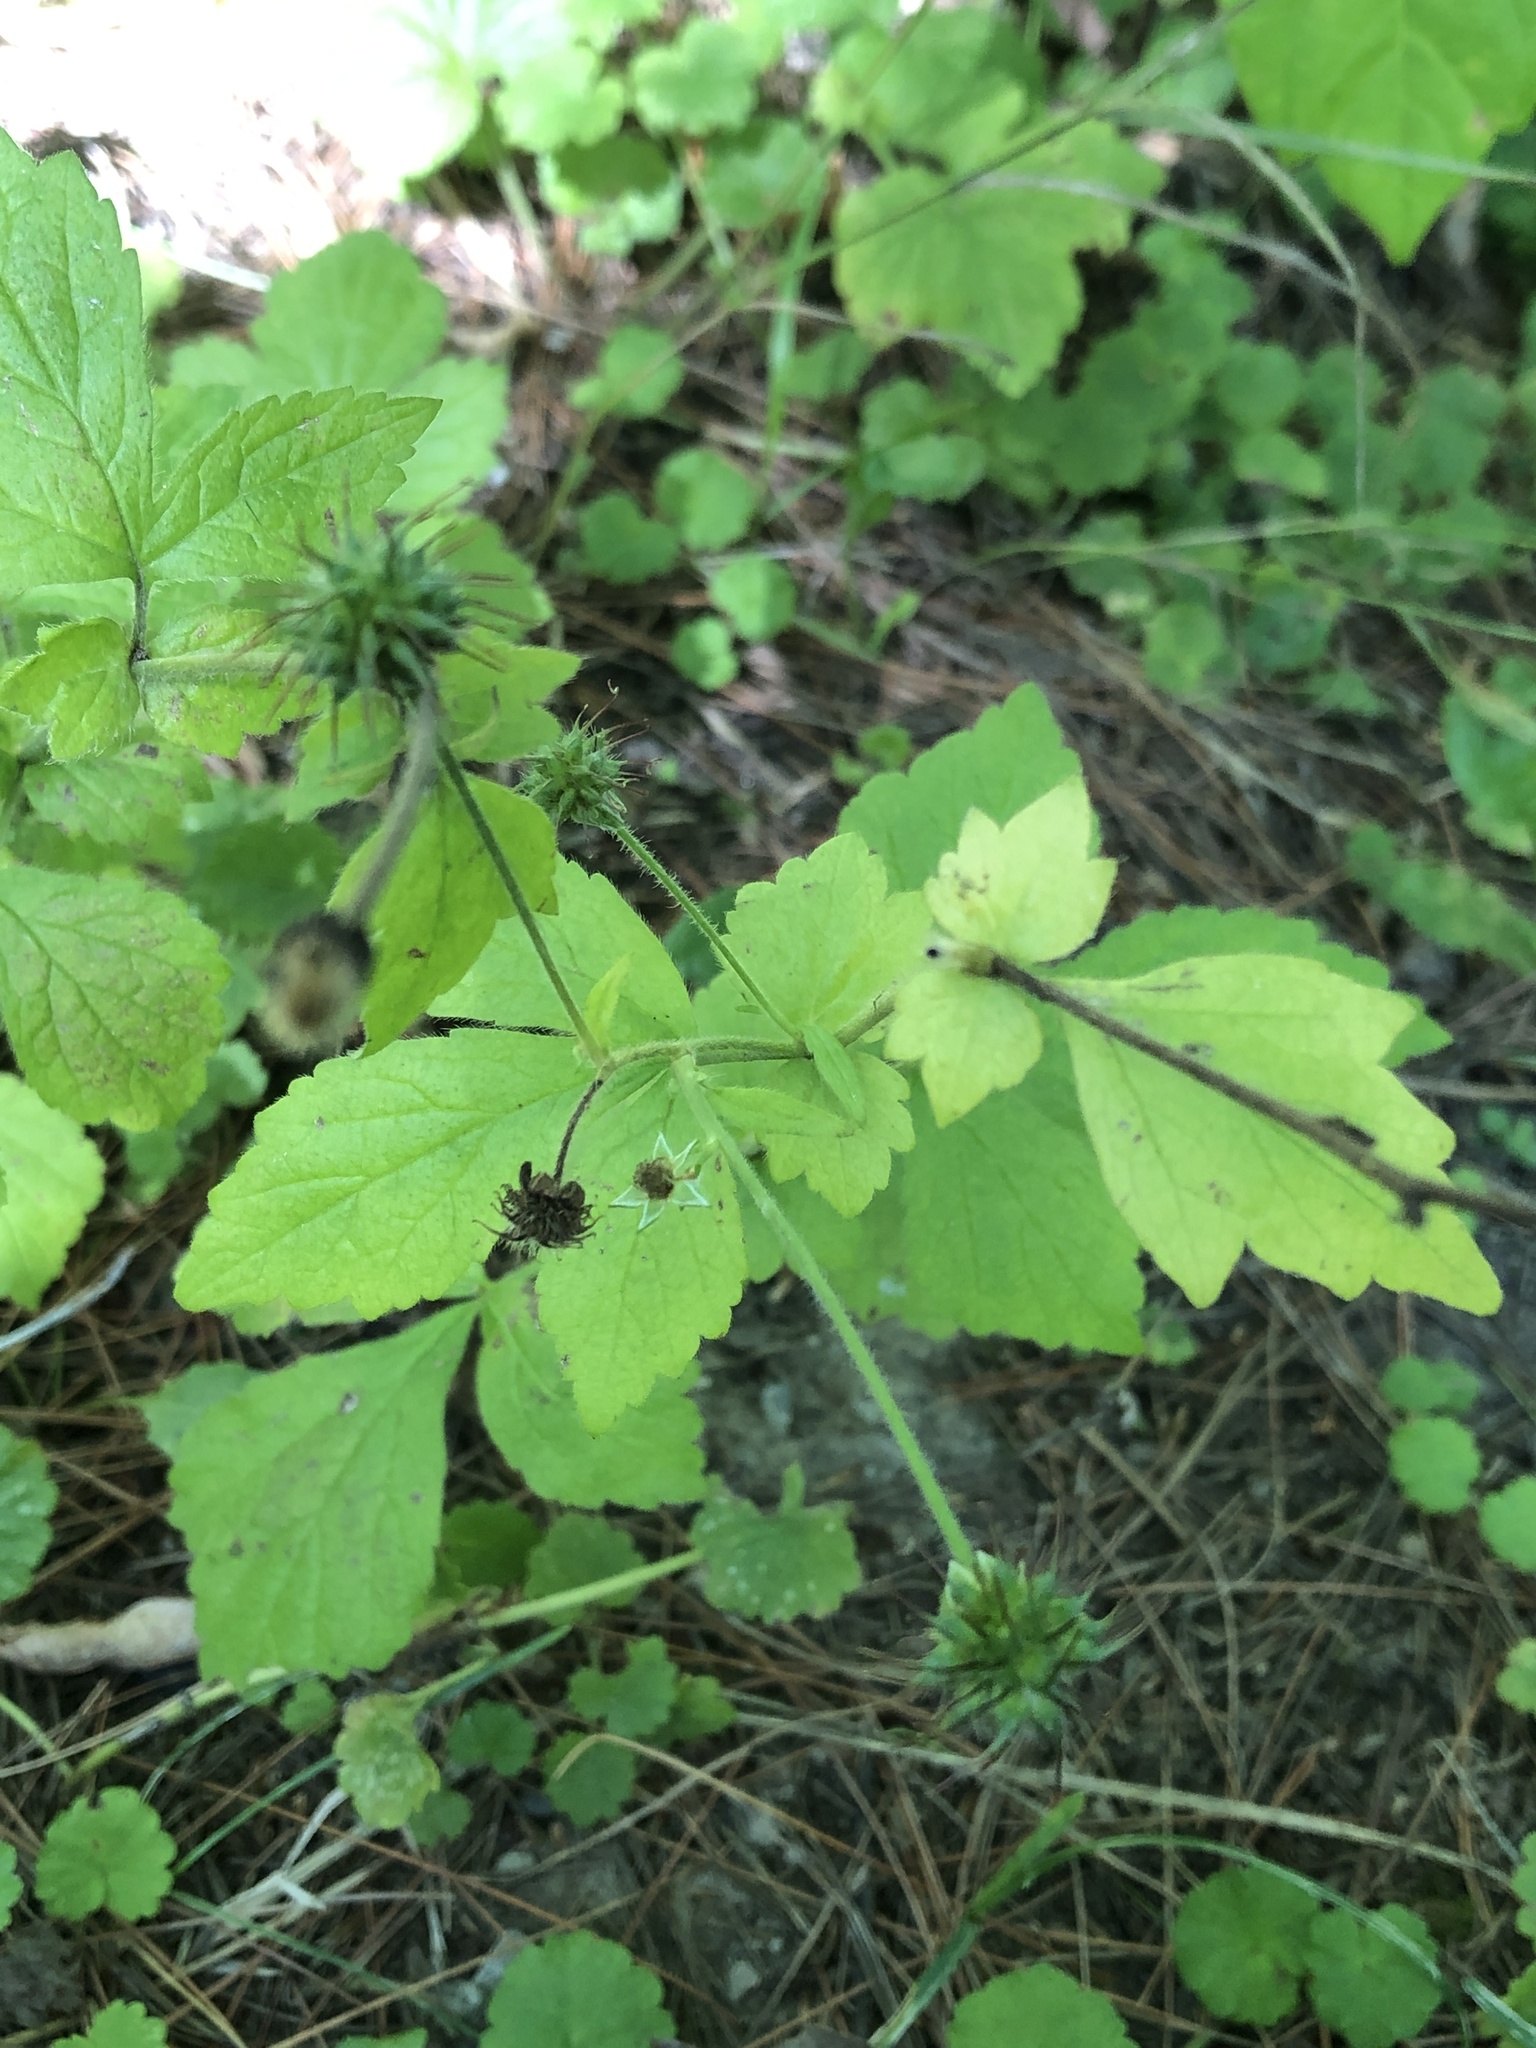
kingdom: Plantae
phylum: Tracheophyta
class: Magnoliopsida
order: Rosales
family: Rosaceae
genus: Geum
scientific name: Geum urbanum
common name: Wood avens
